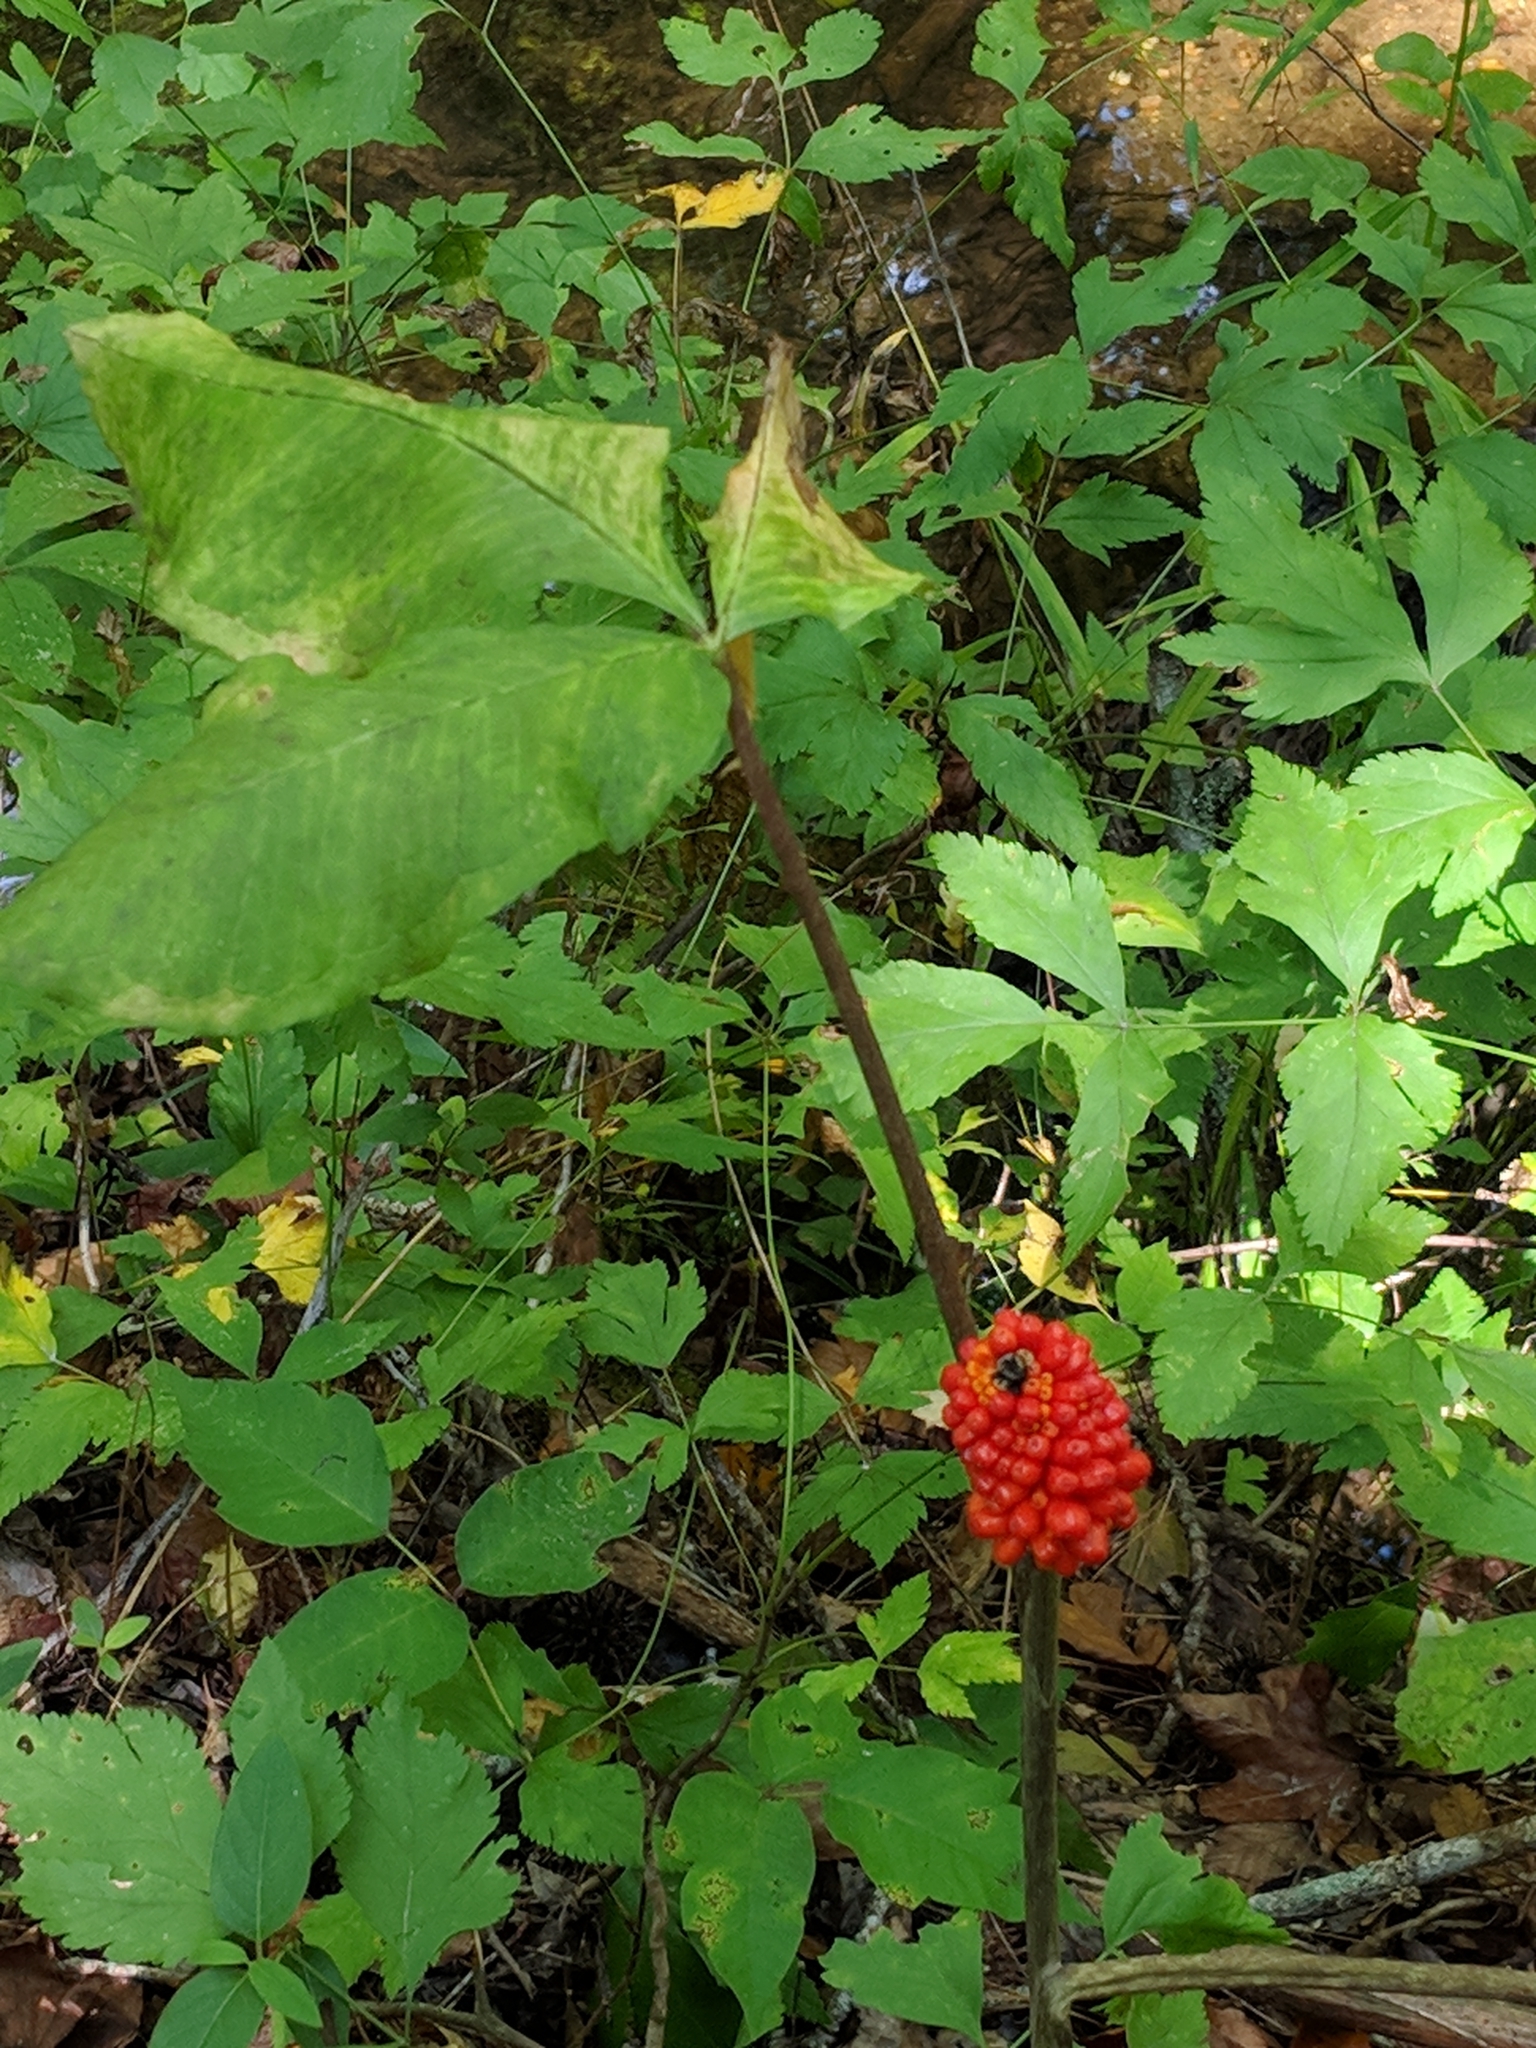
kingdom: Plantae
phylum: Tracheophyta
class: Liliopsida
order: Alismatales
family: Araceae
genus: Arisaema
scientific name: Arisaema triphyllum
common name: Jack-in-the-pulpit
